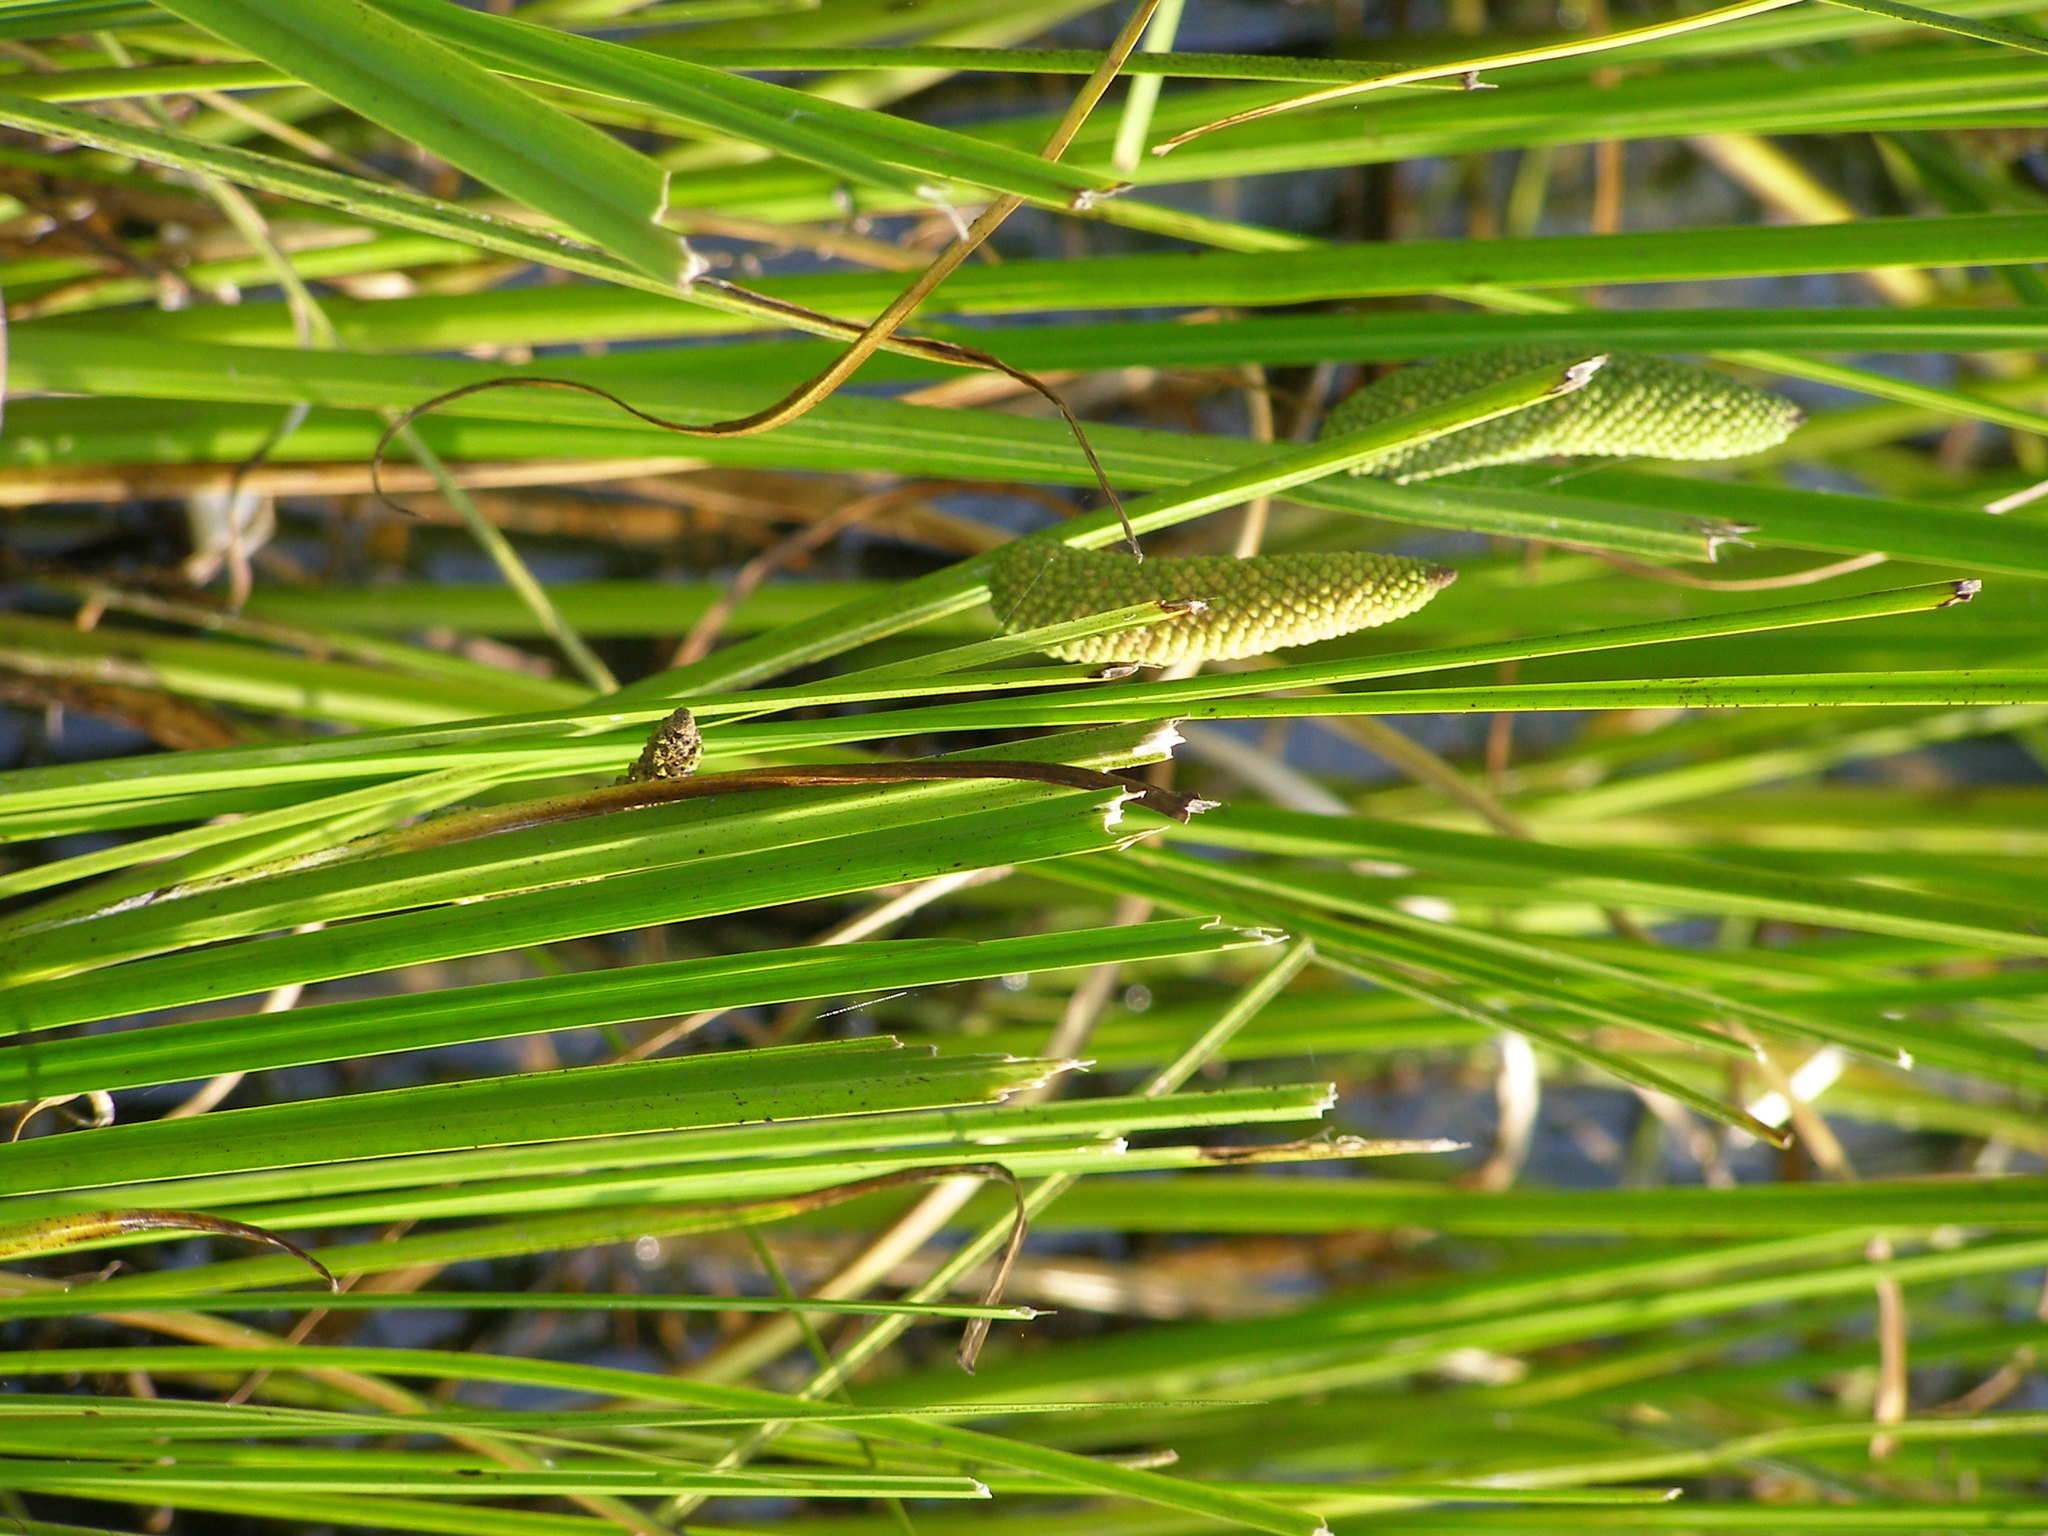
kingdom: Plantae
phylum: Tracheophyta
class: Liliopsida
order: Acorales
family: Acoraceae
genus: Acorus
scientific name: Acorus calamus
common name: Sweet-flag
